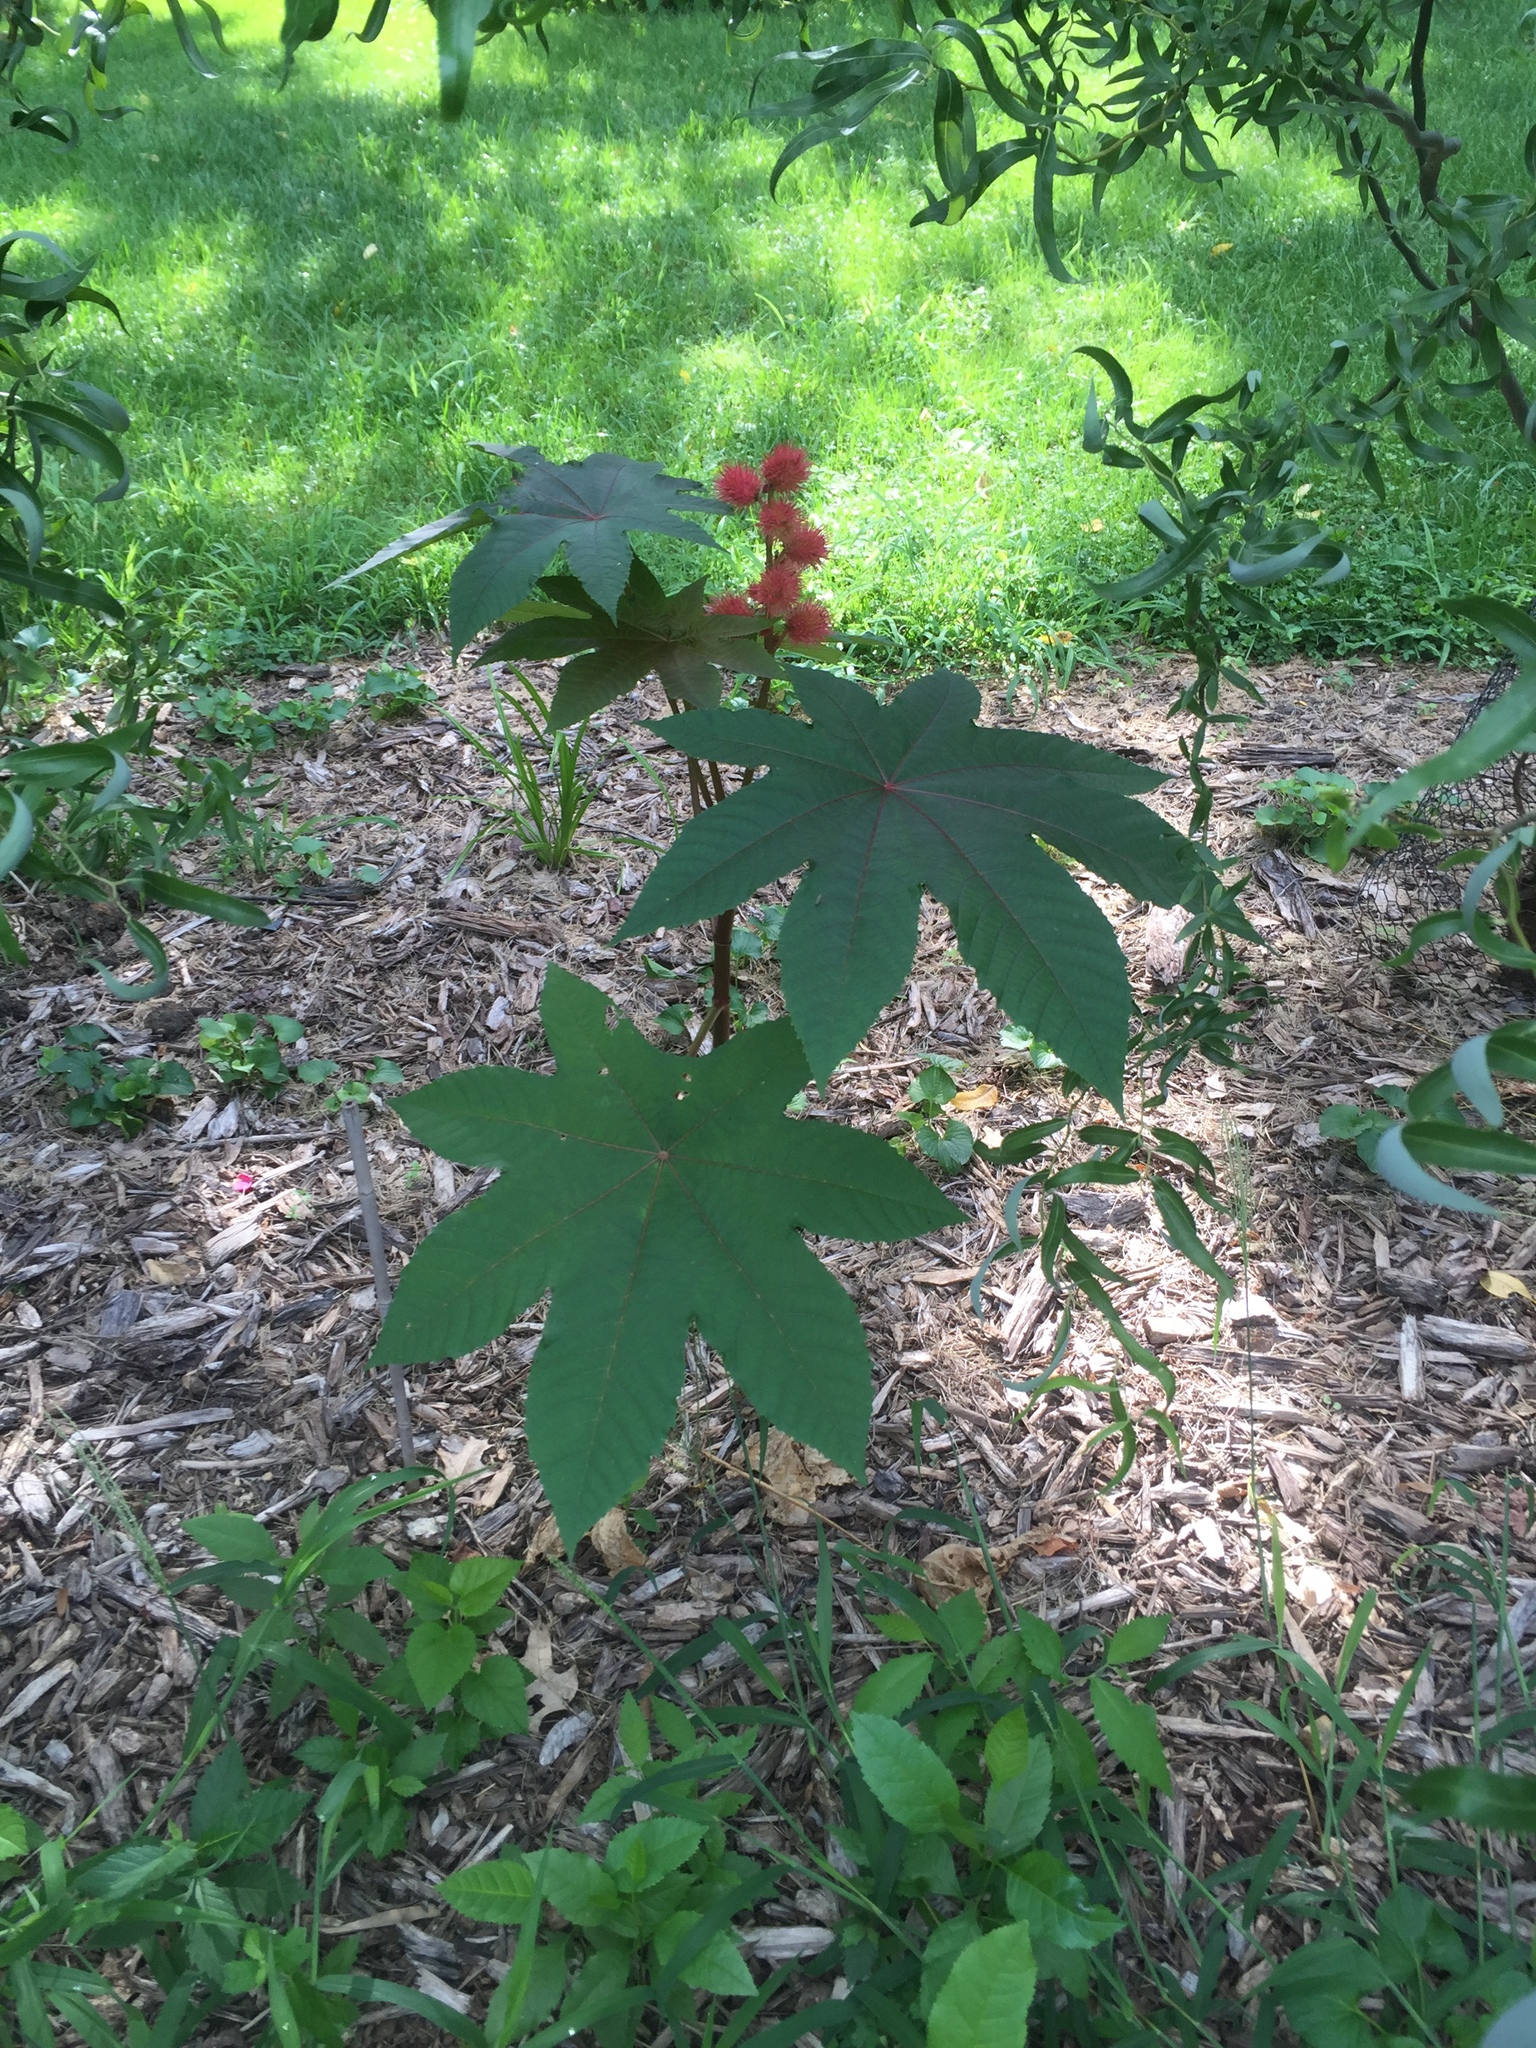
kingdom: Plantae
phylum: Tracheophyta
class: Magnoliopsida
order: Malpighiales
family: Euphorbiaceae
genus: Ricinus
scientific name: Ricinus communis
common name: Castor-oil-plant
